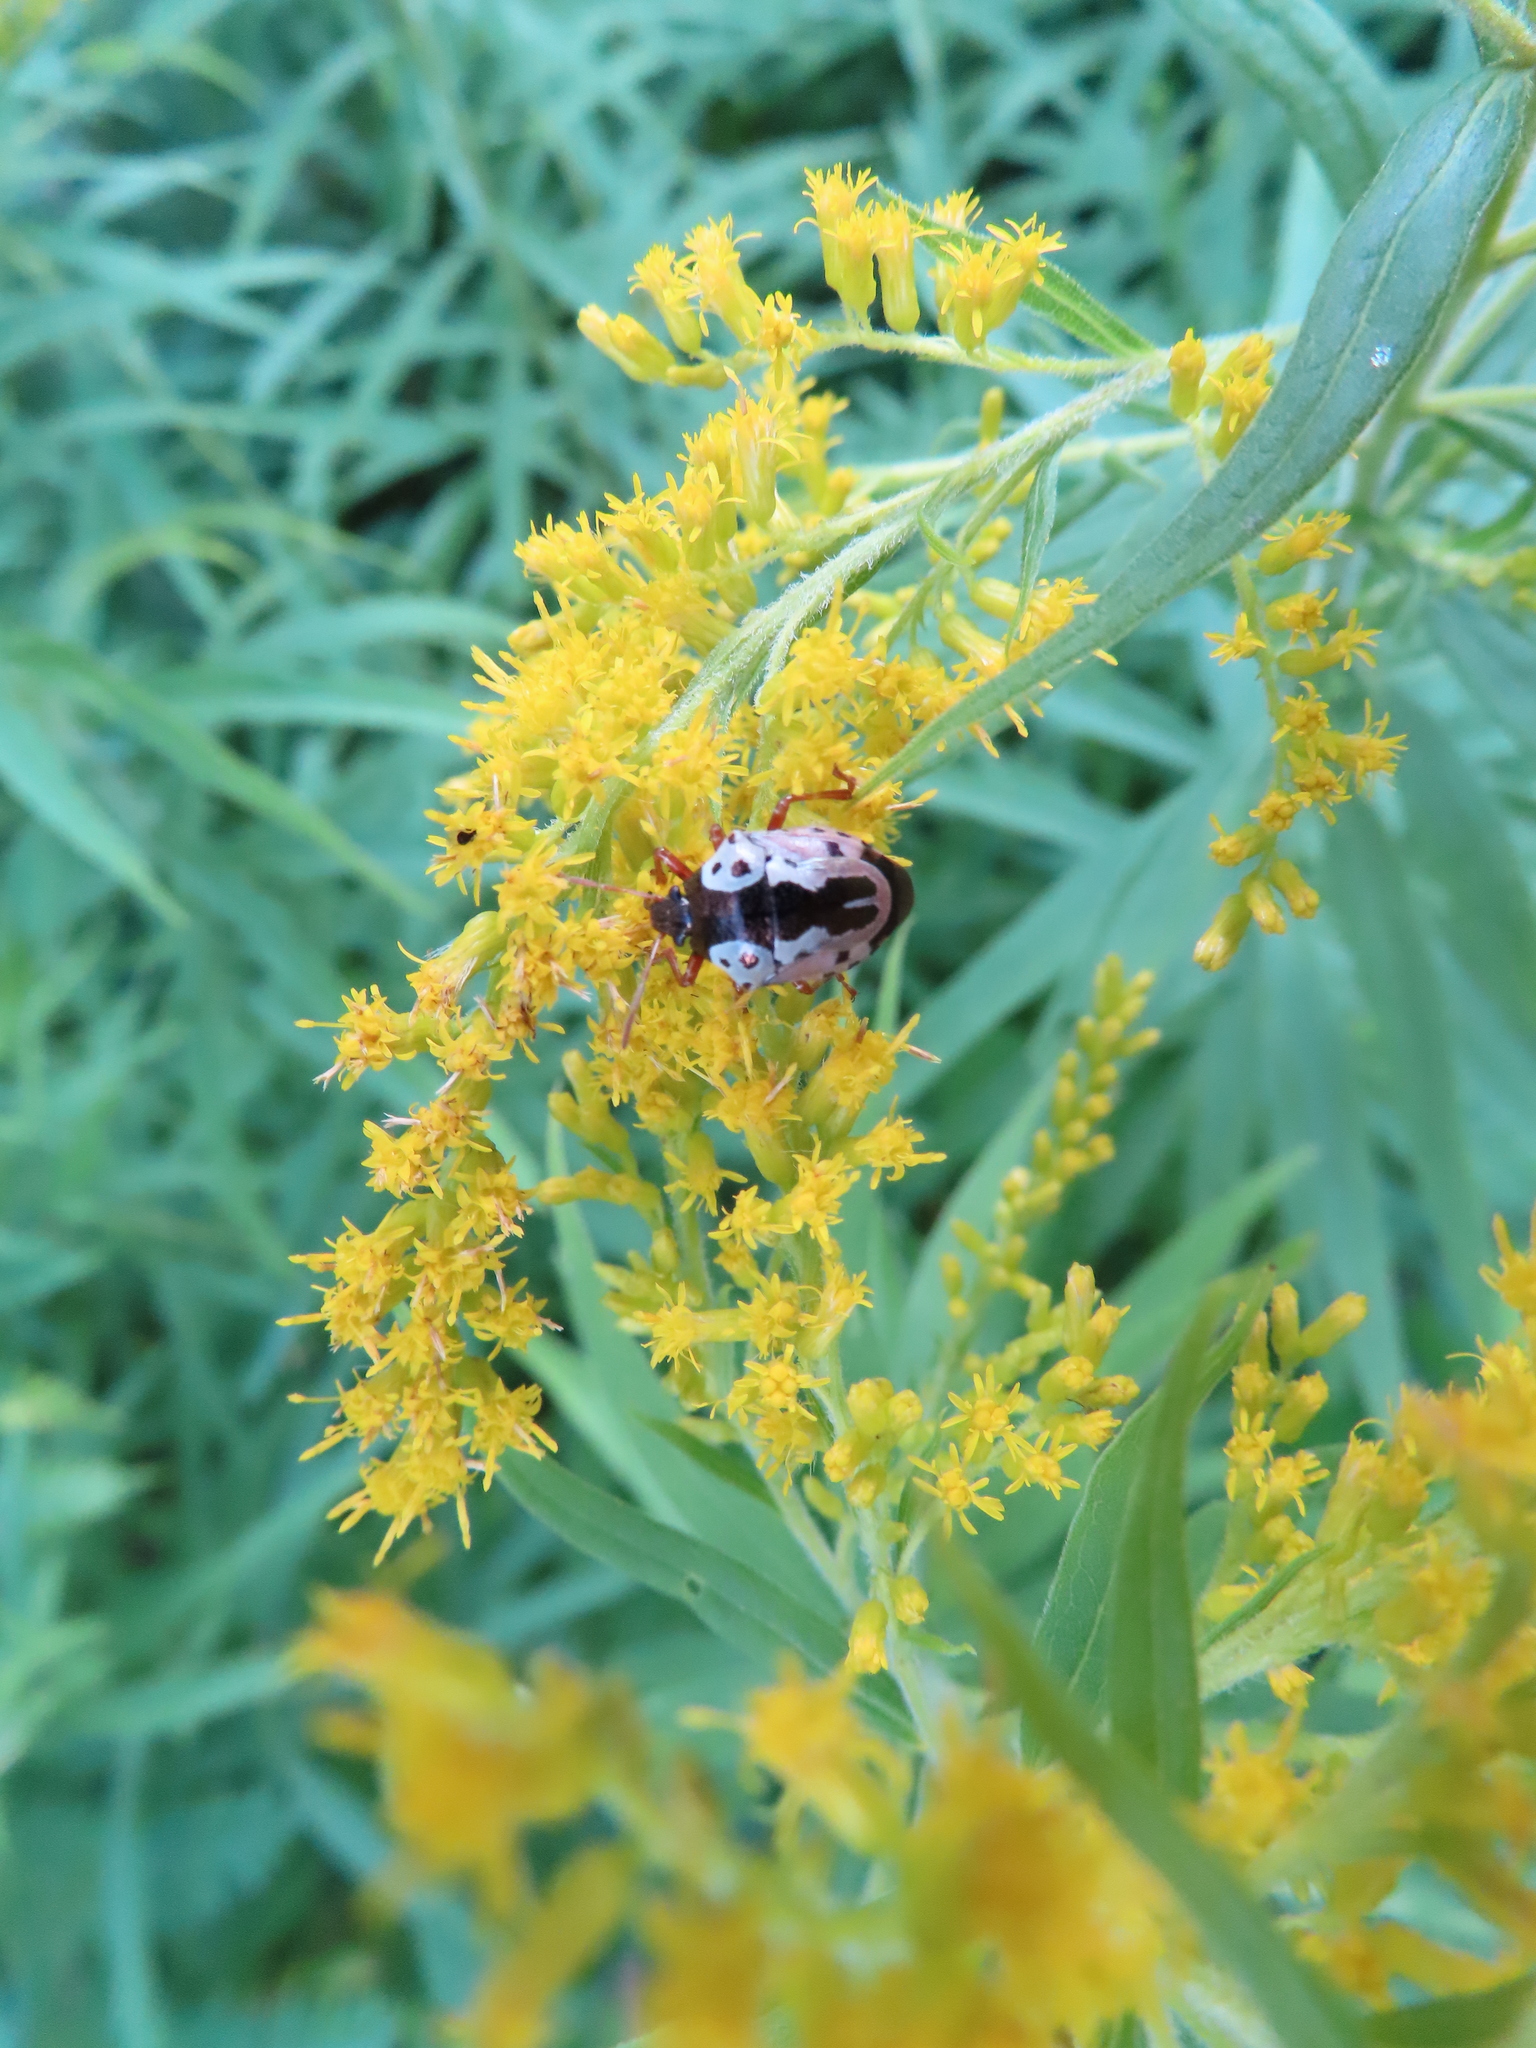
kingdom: Animalia
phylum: Arthropoda
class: Insecta
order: Hemiptera
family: Pentatomidae
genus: Stiretrus
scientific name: Stiretrus anchorago
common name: Anchor stink bug
